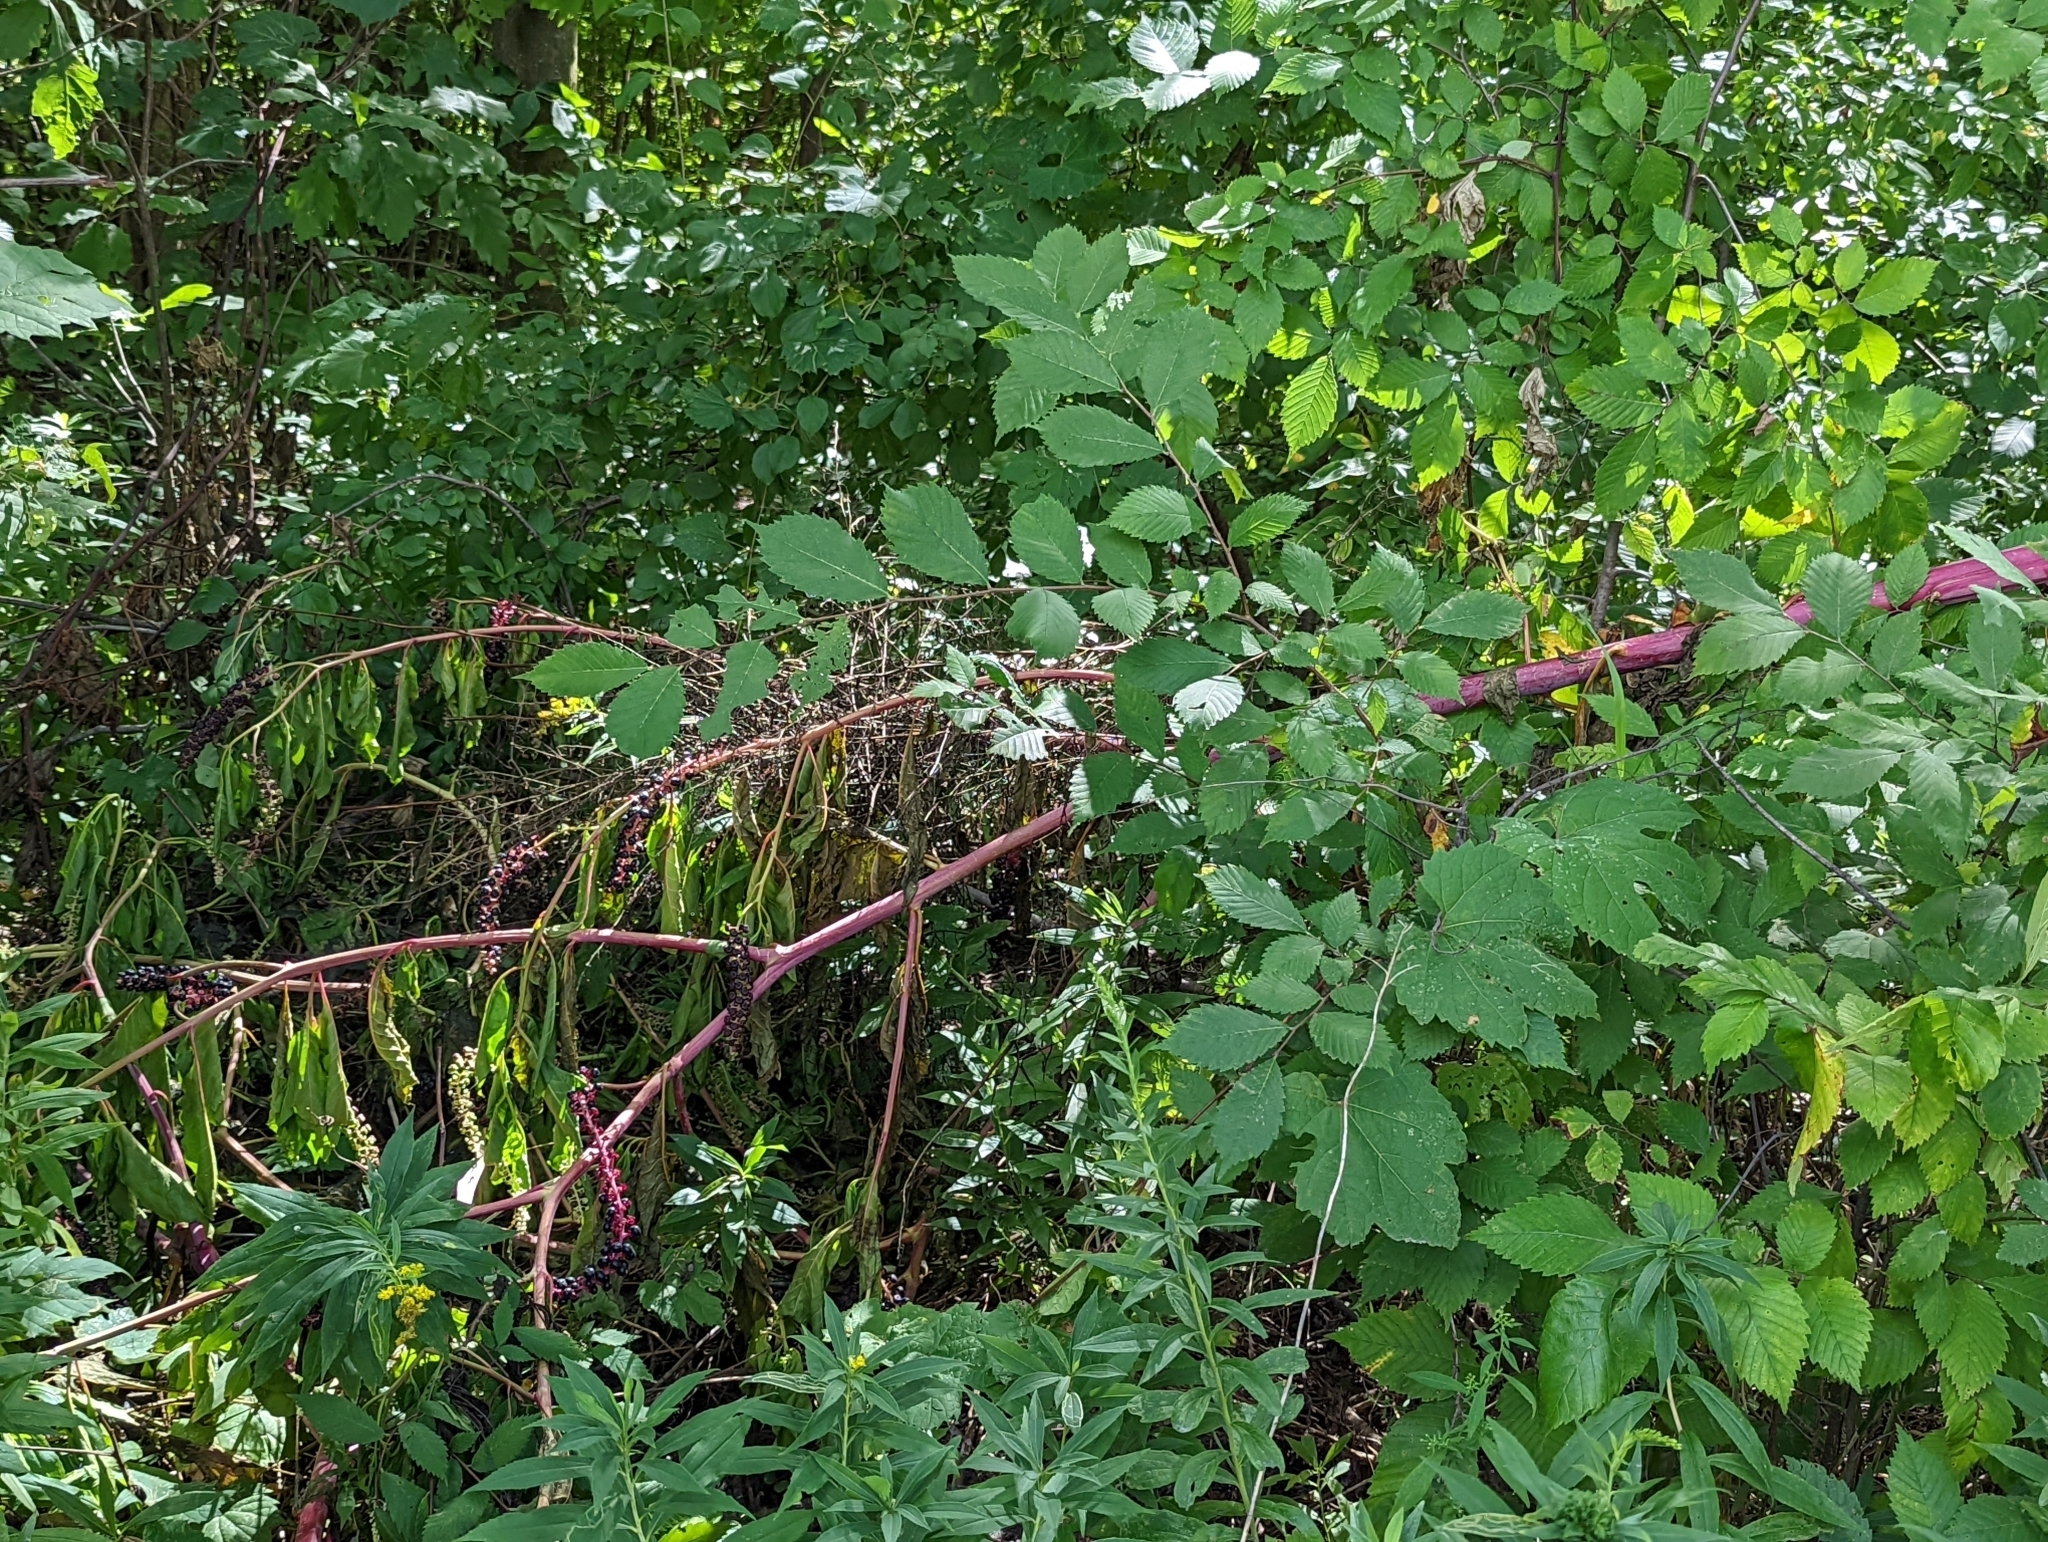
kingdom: Plantae
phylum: Tracheophyta
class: Magnoliopsida
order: Caryophyllales
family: Phytolaccaceae
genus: Phytolacca
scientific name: Phytolacca americana
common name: American pokeweed
